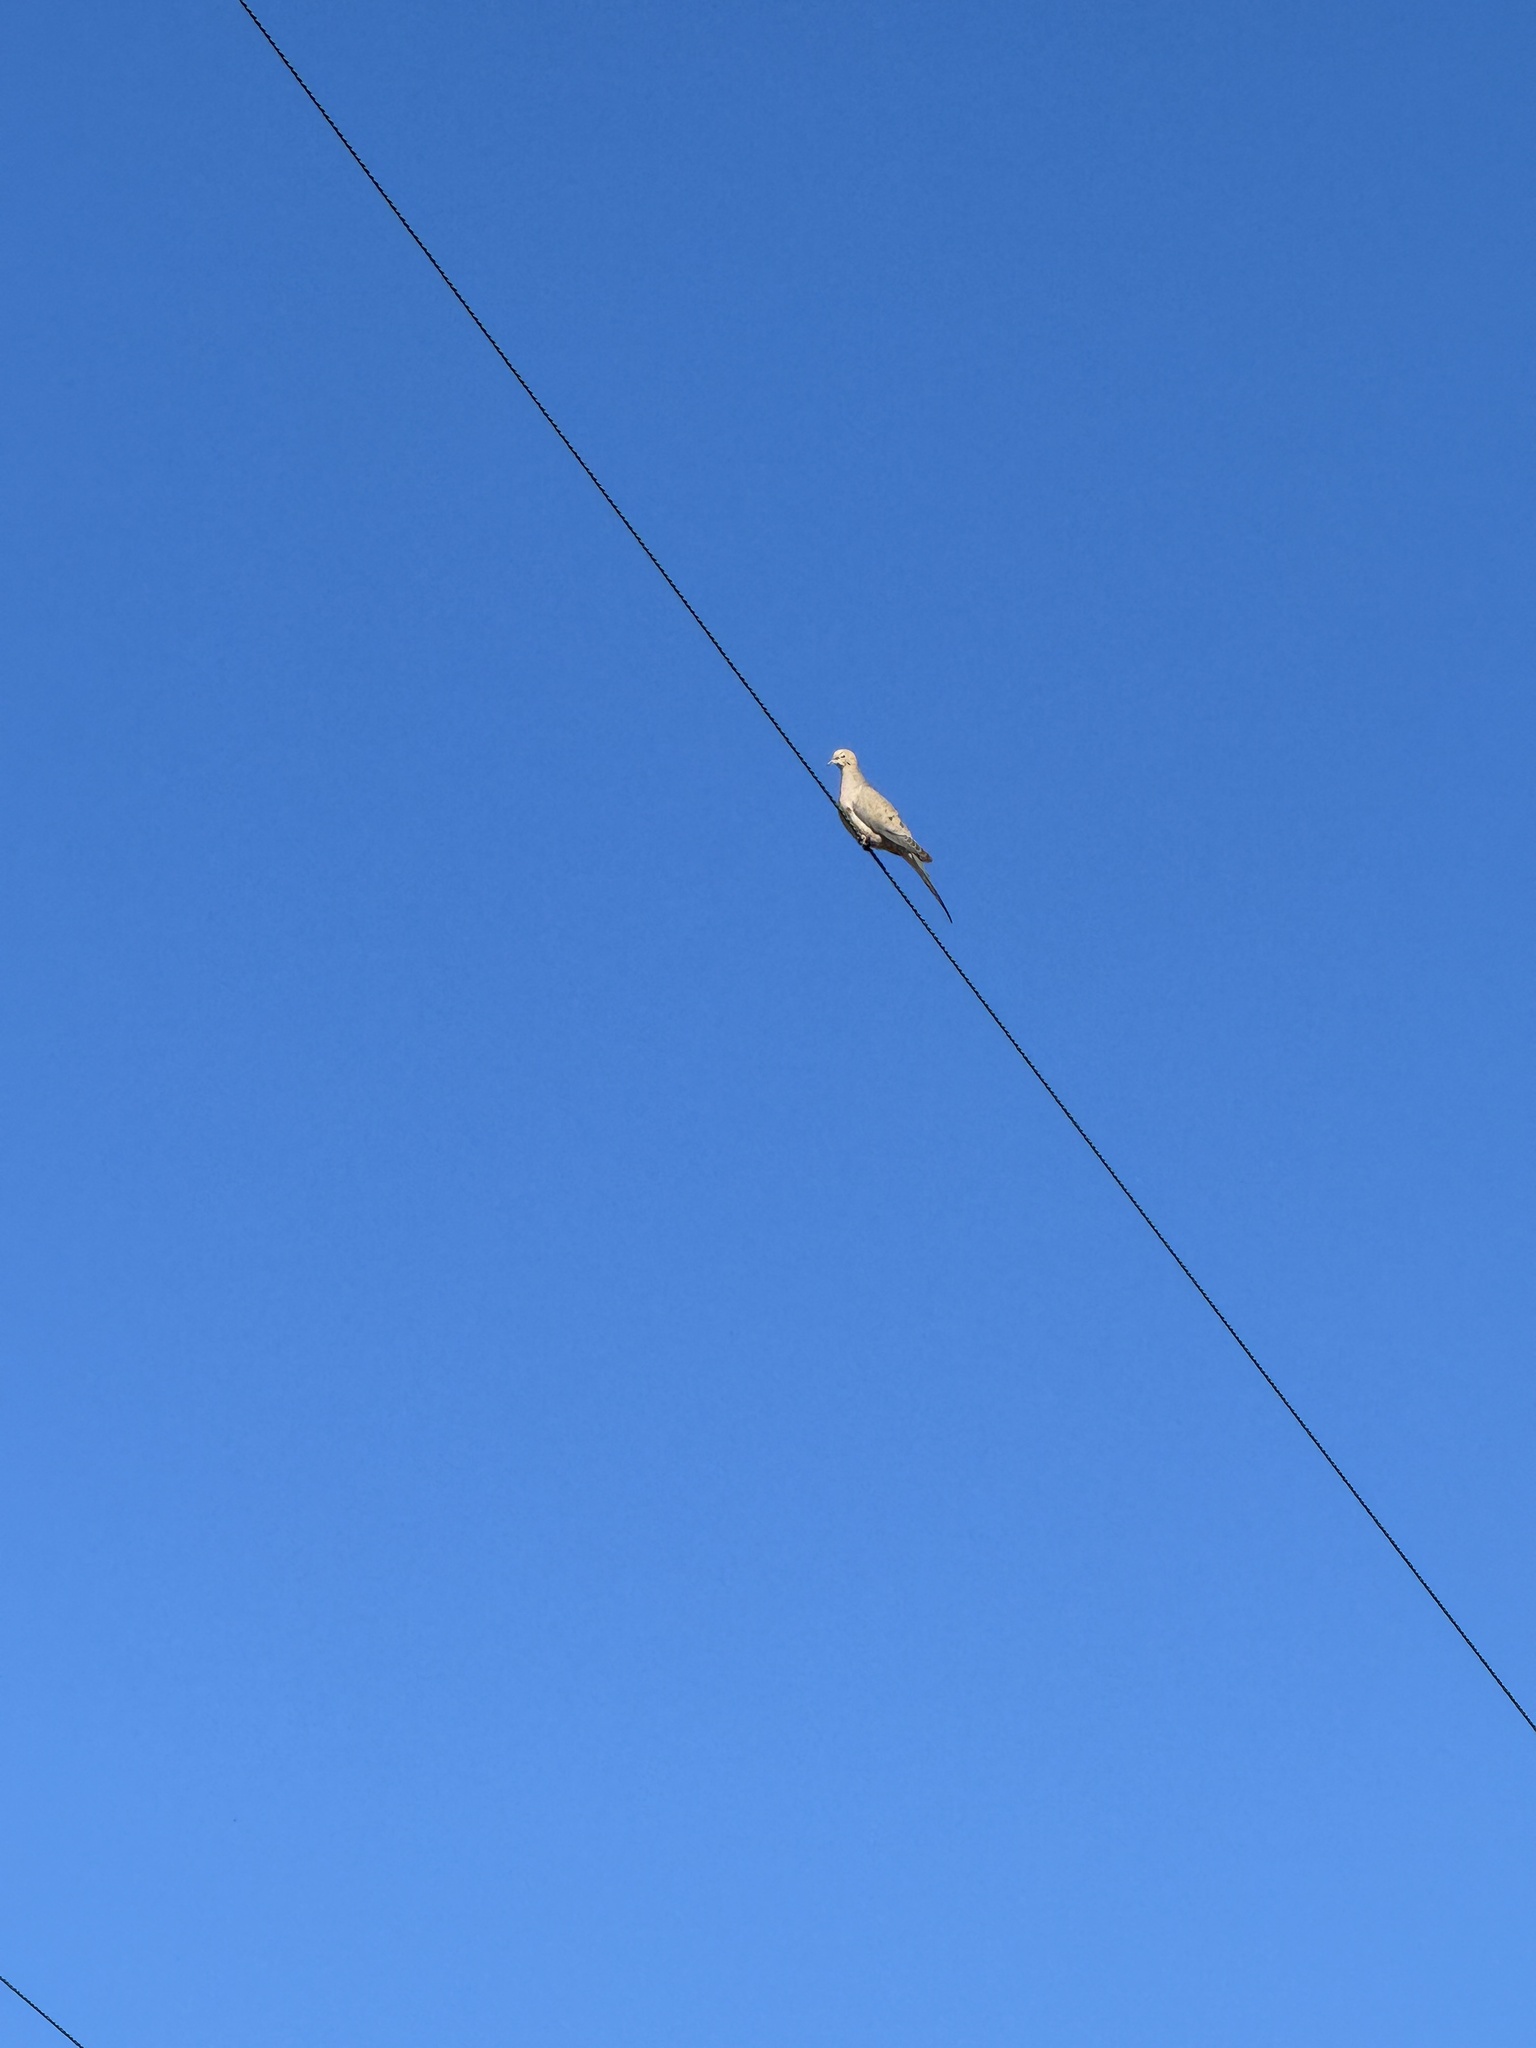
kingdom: Animalia
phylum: Chordata
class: Aves
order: Columbiformes
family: Columbidae
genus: Zenaida
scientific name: Zenaida macroura
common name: Mourning dove
